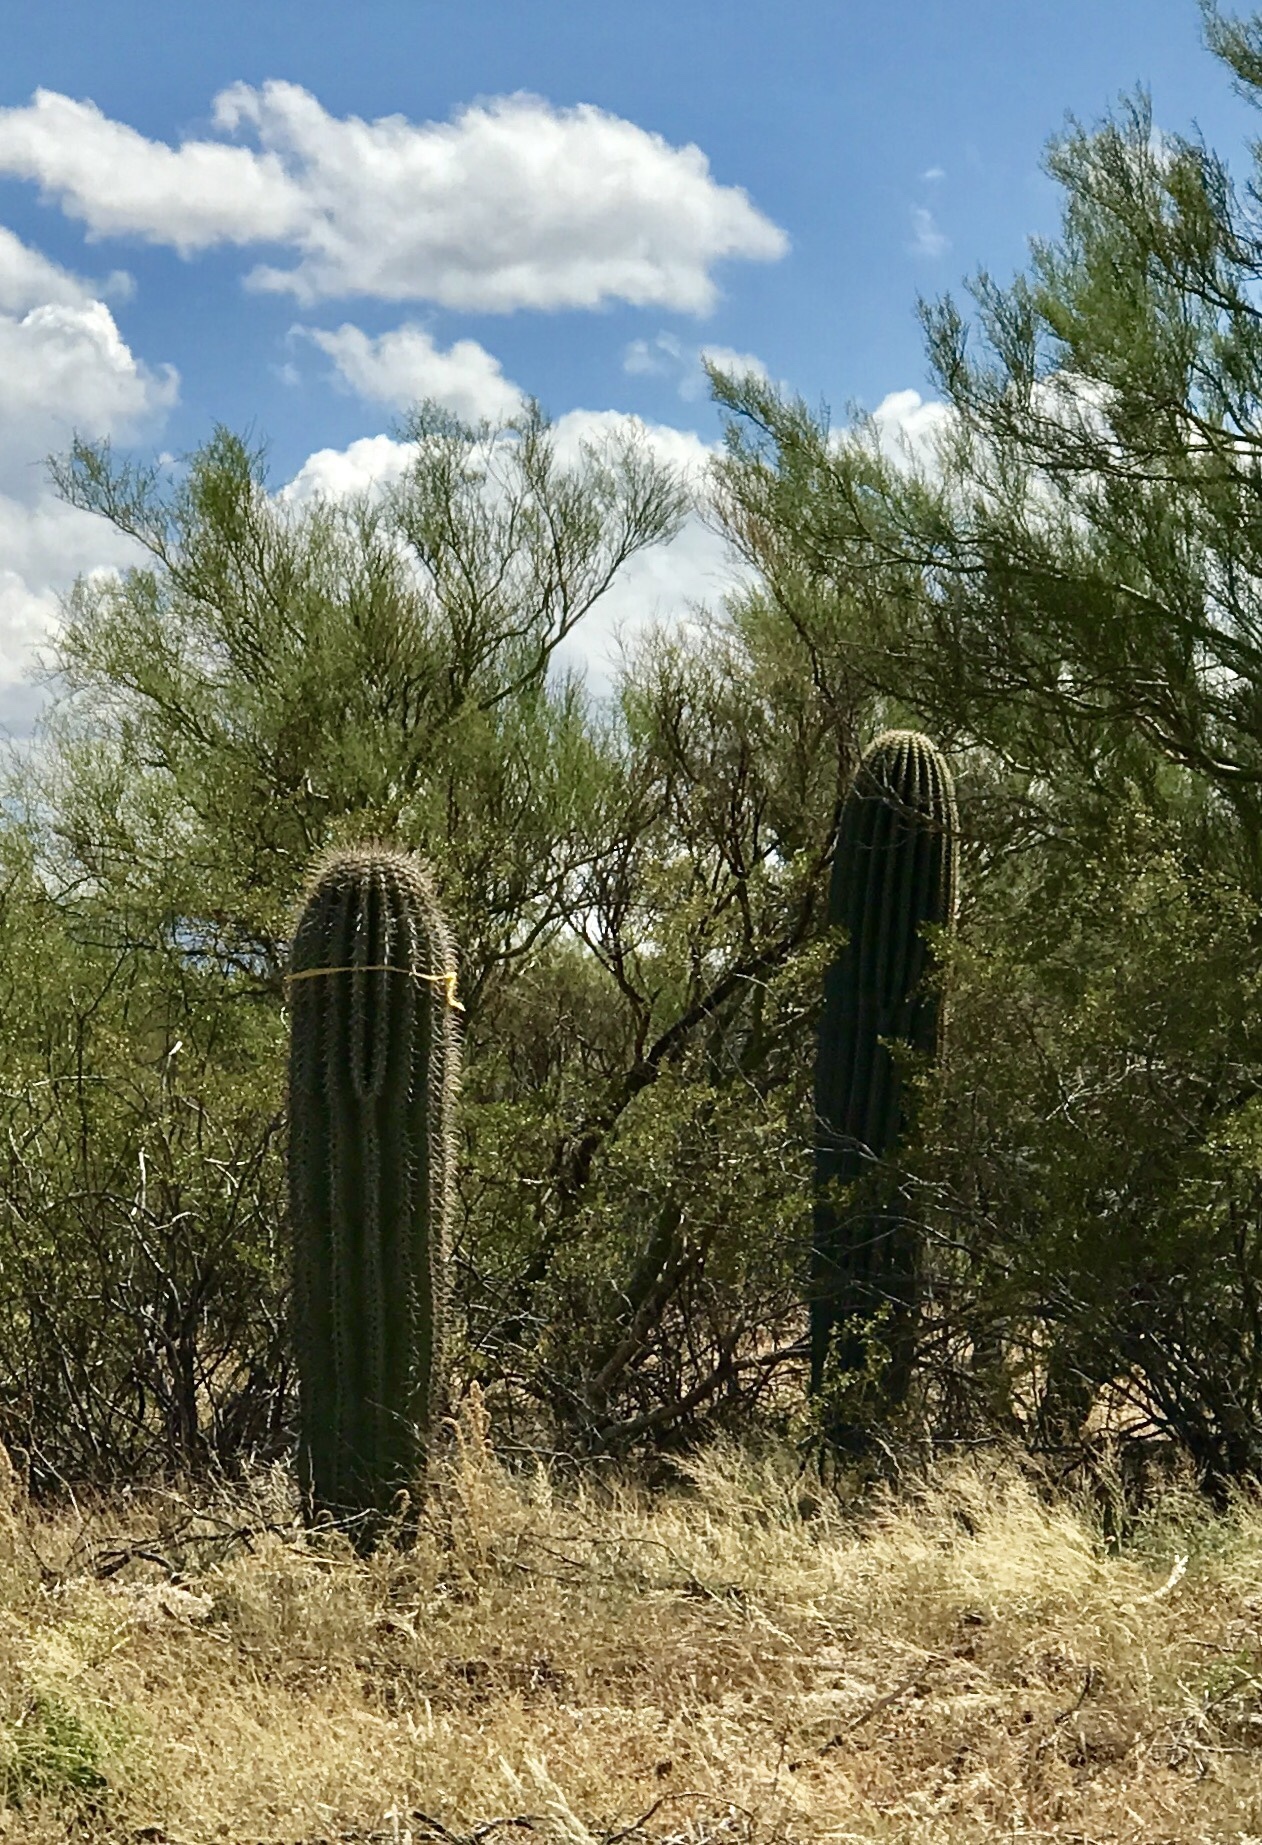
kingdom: Plantae
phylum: Tracheophyta
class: Magnoliopsida
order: Caryophyllales
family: Cactaceae
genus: Carnegiea
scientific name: Carnegiea gigantea
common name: Saguaro
